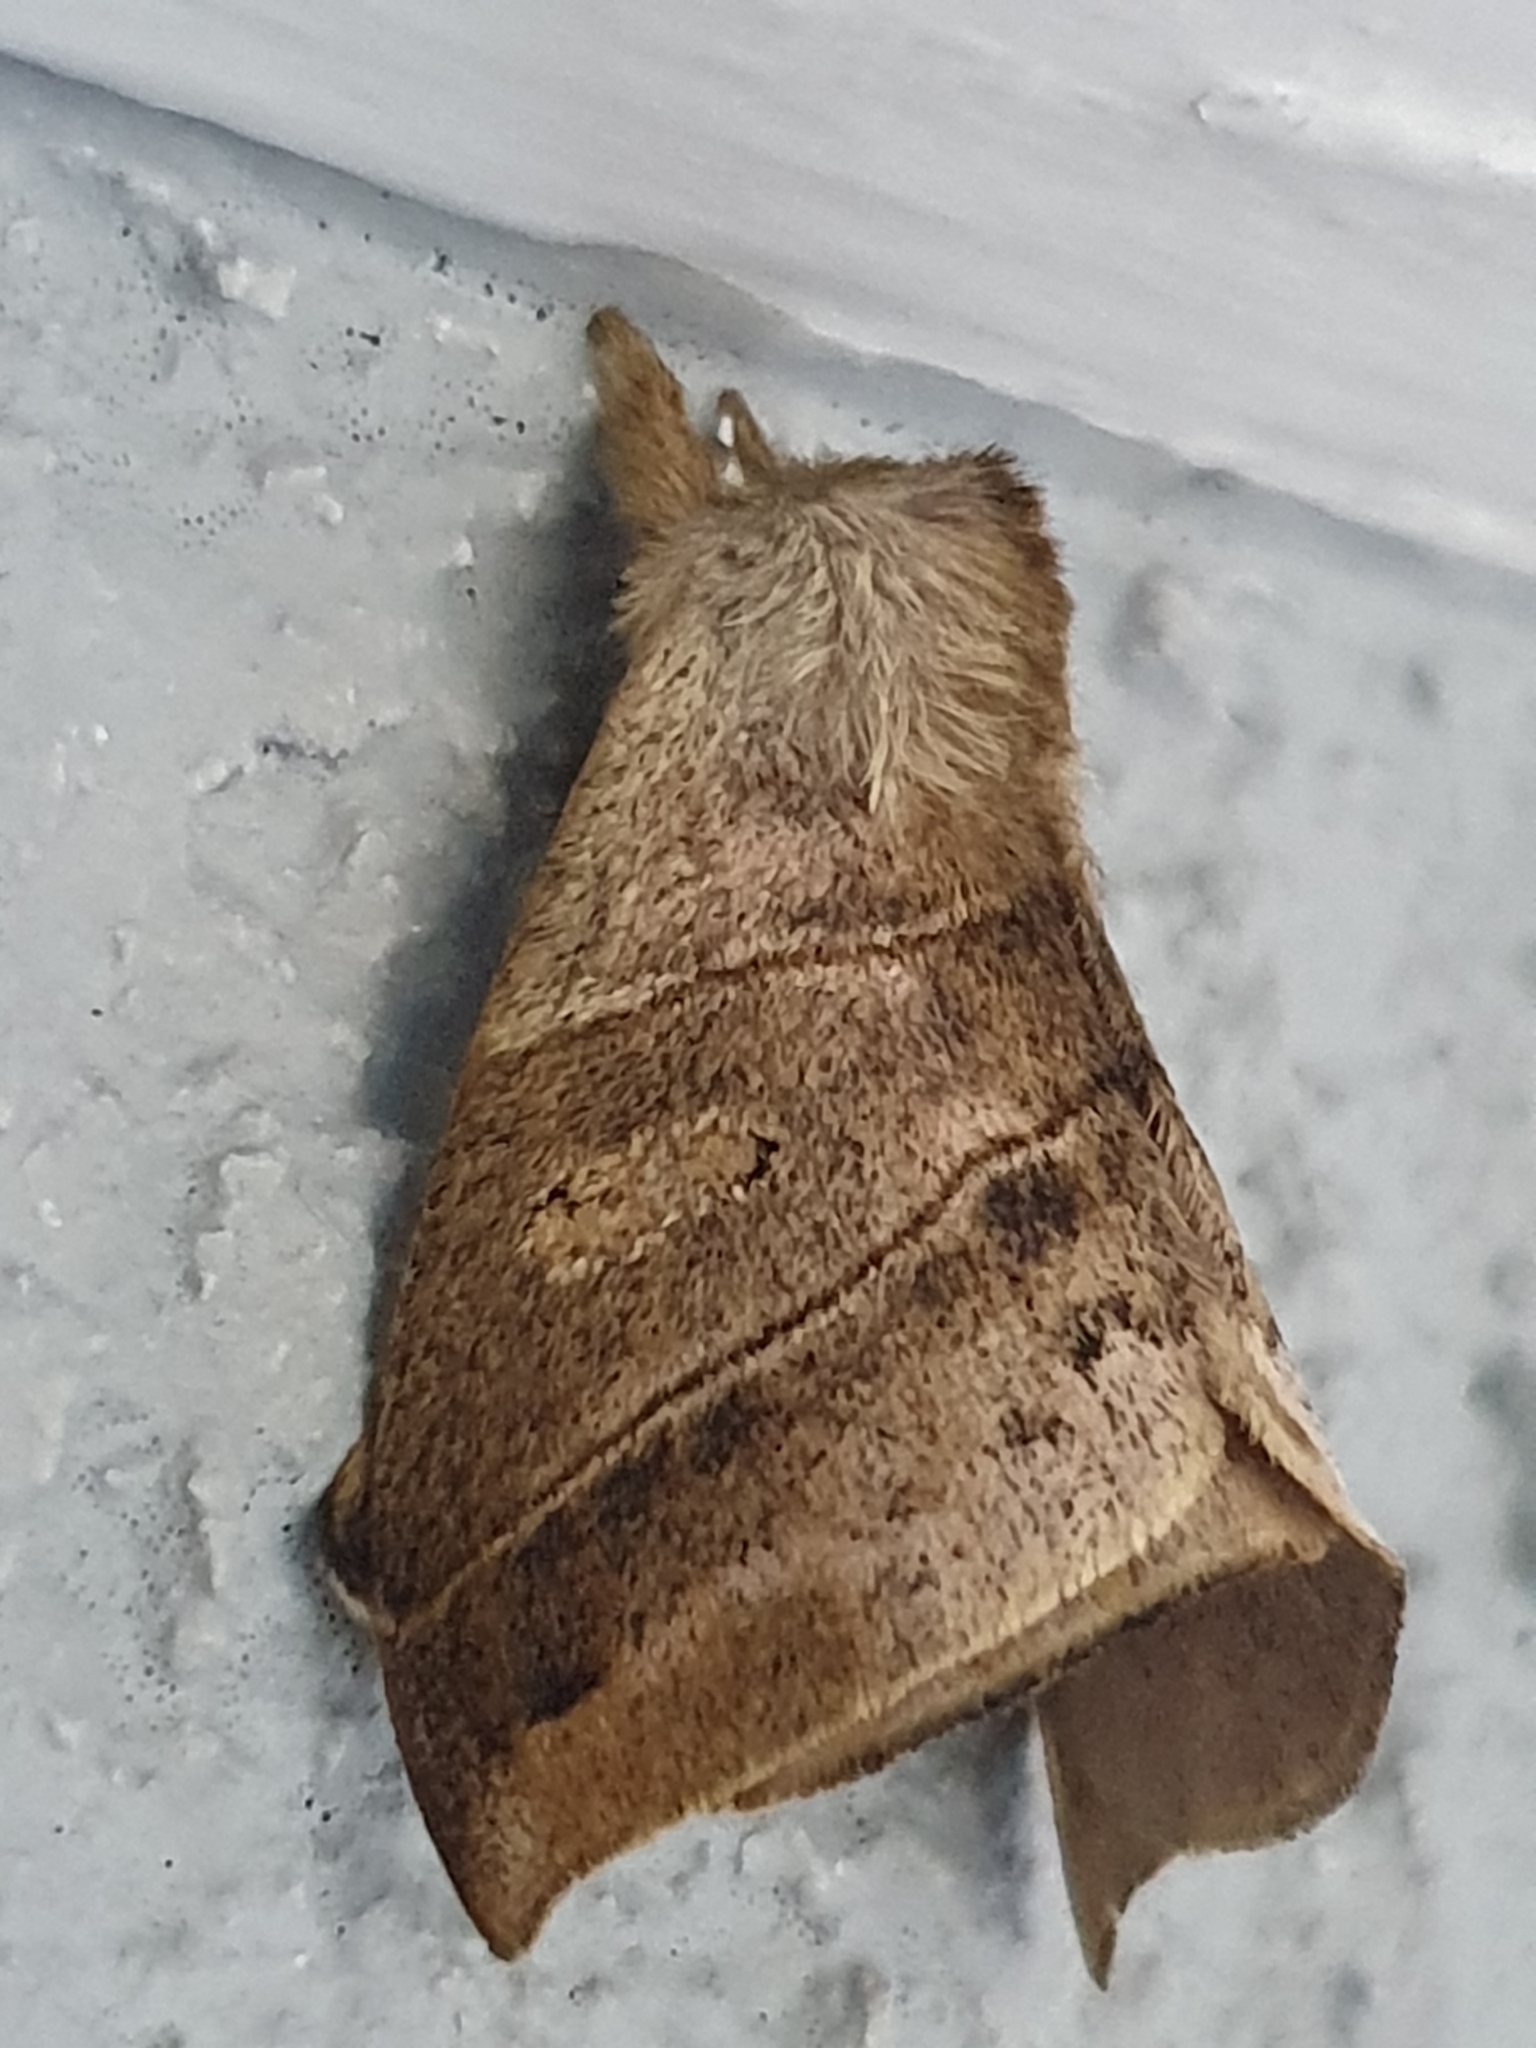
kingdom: Animalia
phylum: Arthropoda
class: Insecta
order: Lepidoptera
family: Saturniidae
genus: Prohylesia
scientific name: Prohylesia zikani
